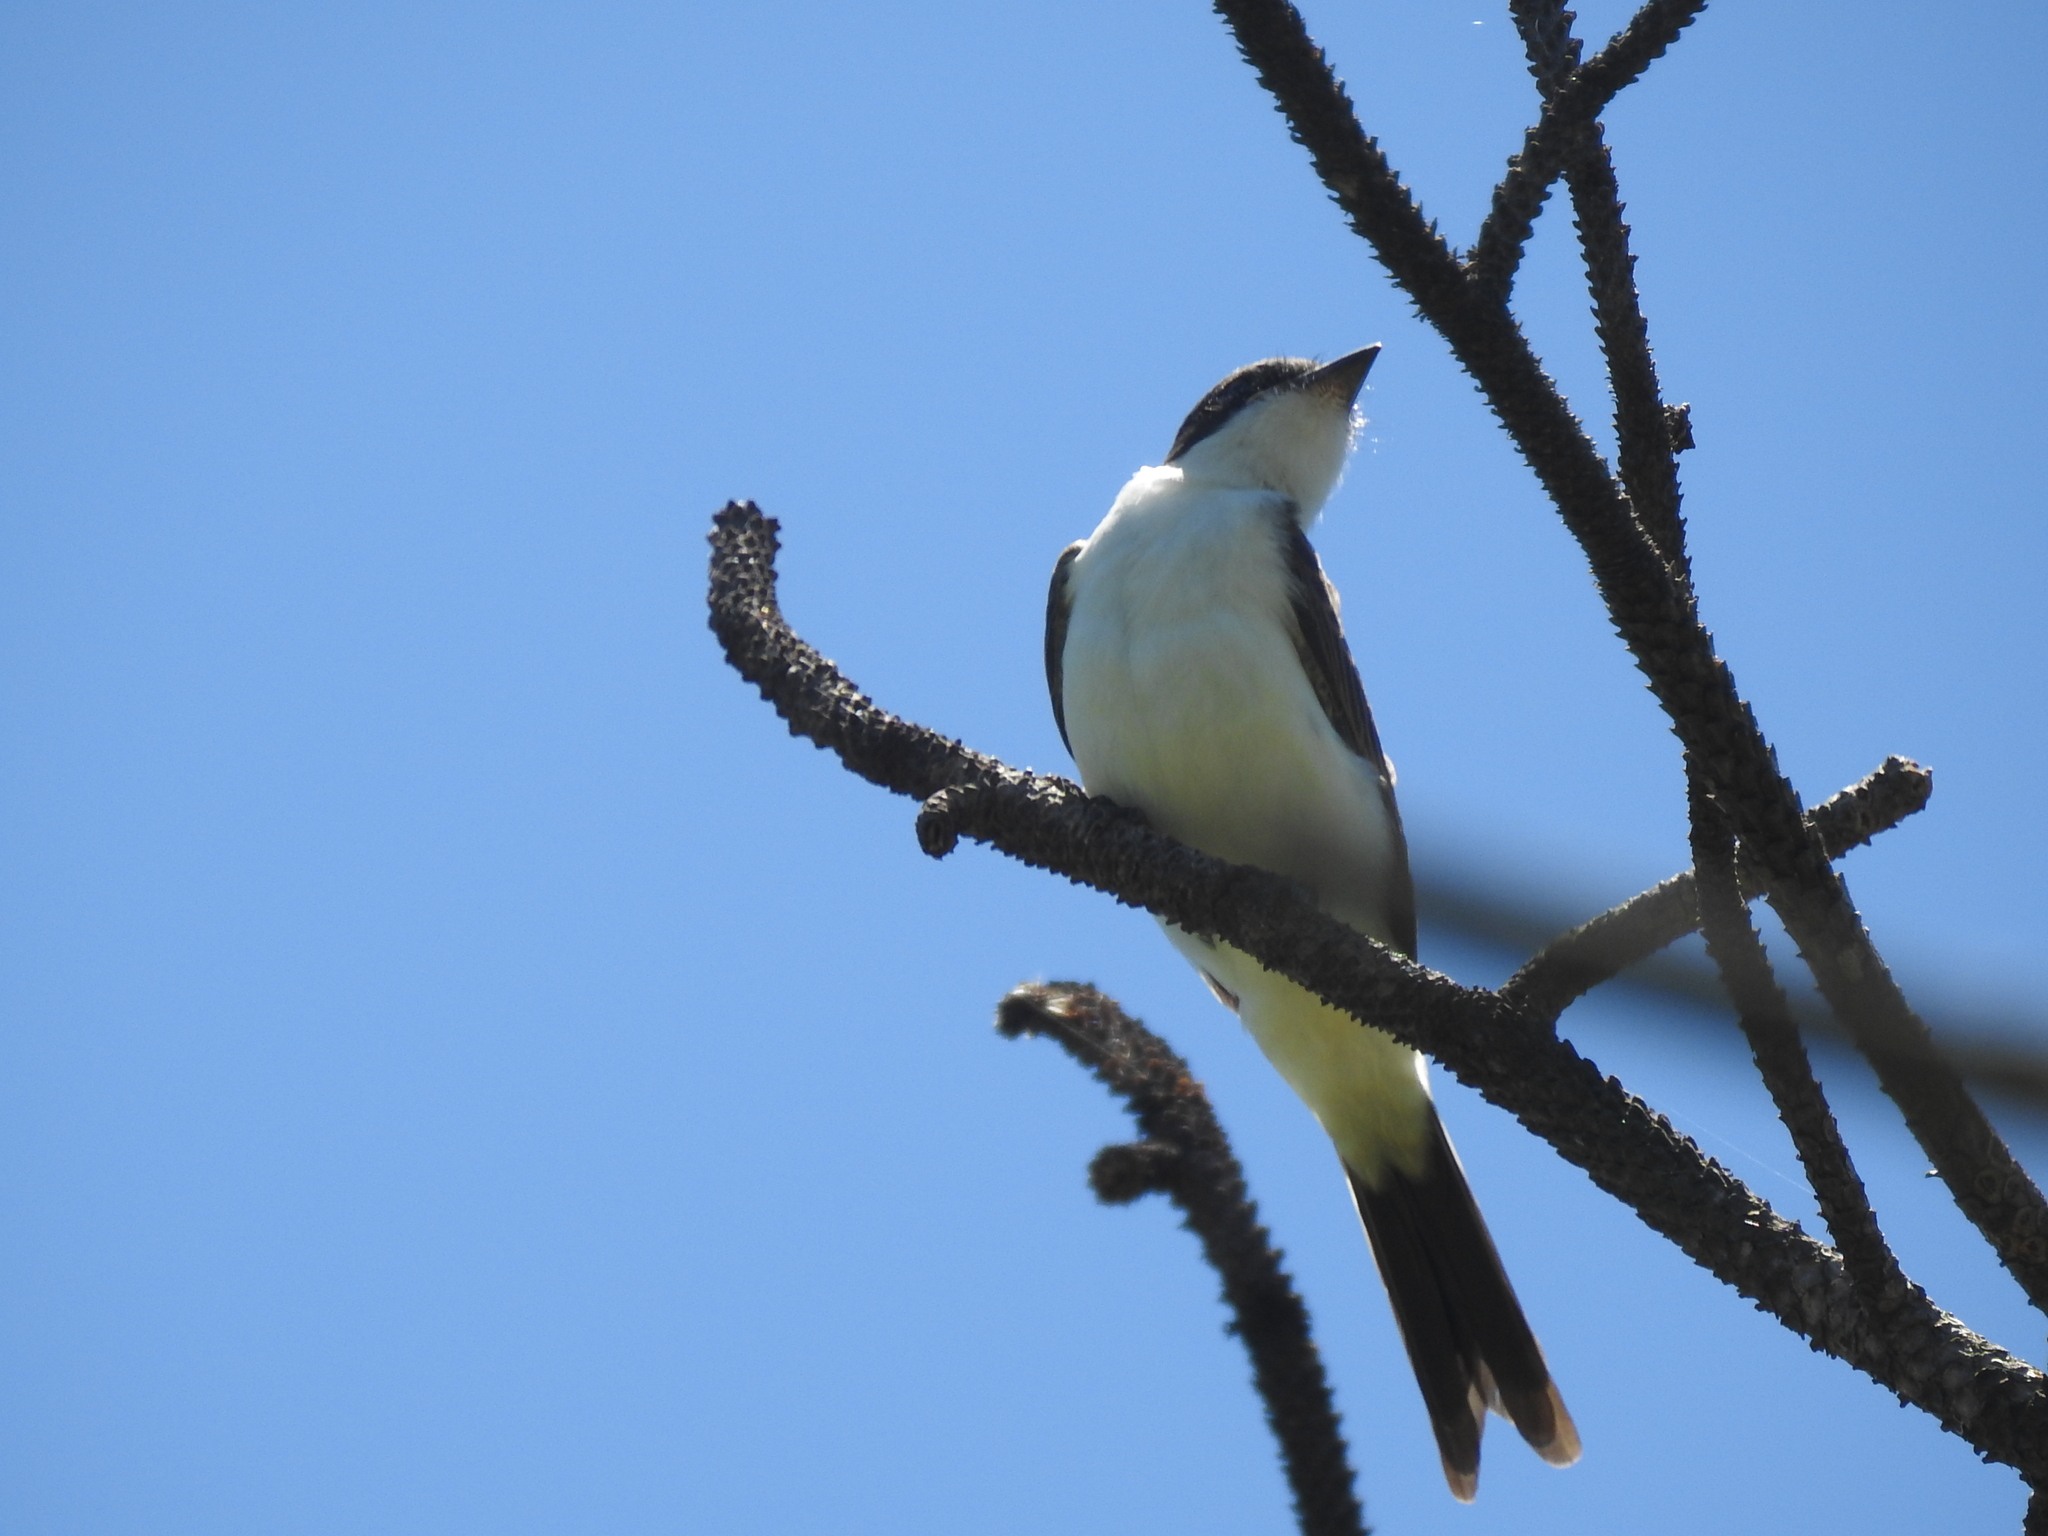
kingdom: Animalia
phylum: Chordata
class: Aves
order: Passeriformes
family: Tyrannidae
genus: Tyrannus
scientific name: Tyrannus savana
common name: Fork-tailed flycatcher
